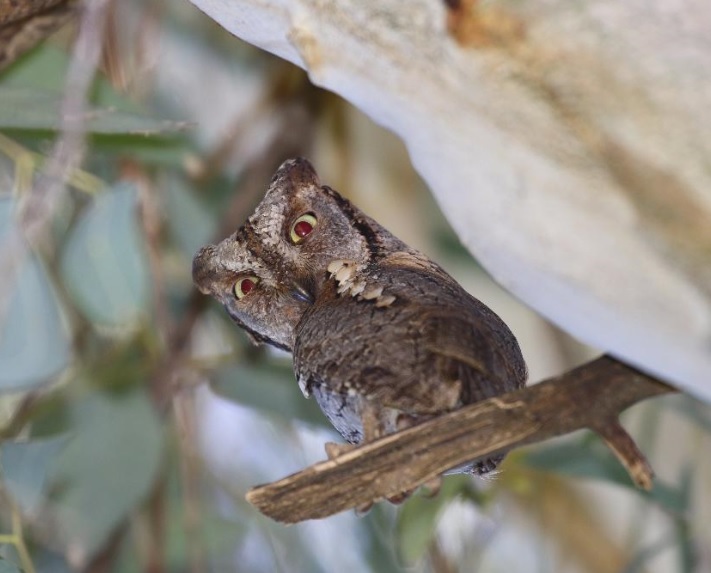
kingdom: Animalia
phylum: Chordata
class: Aves
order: Strigiformes
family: Strigidae
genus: Otus
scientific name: Otus scops
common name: Eurasian scops owl
